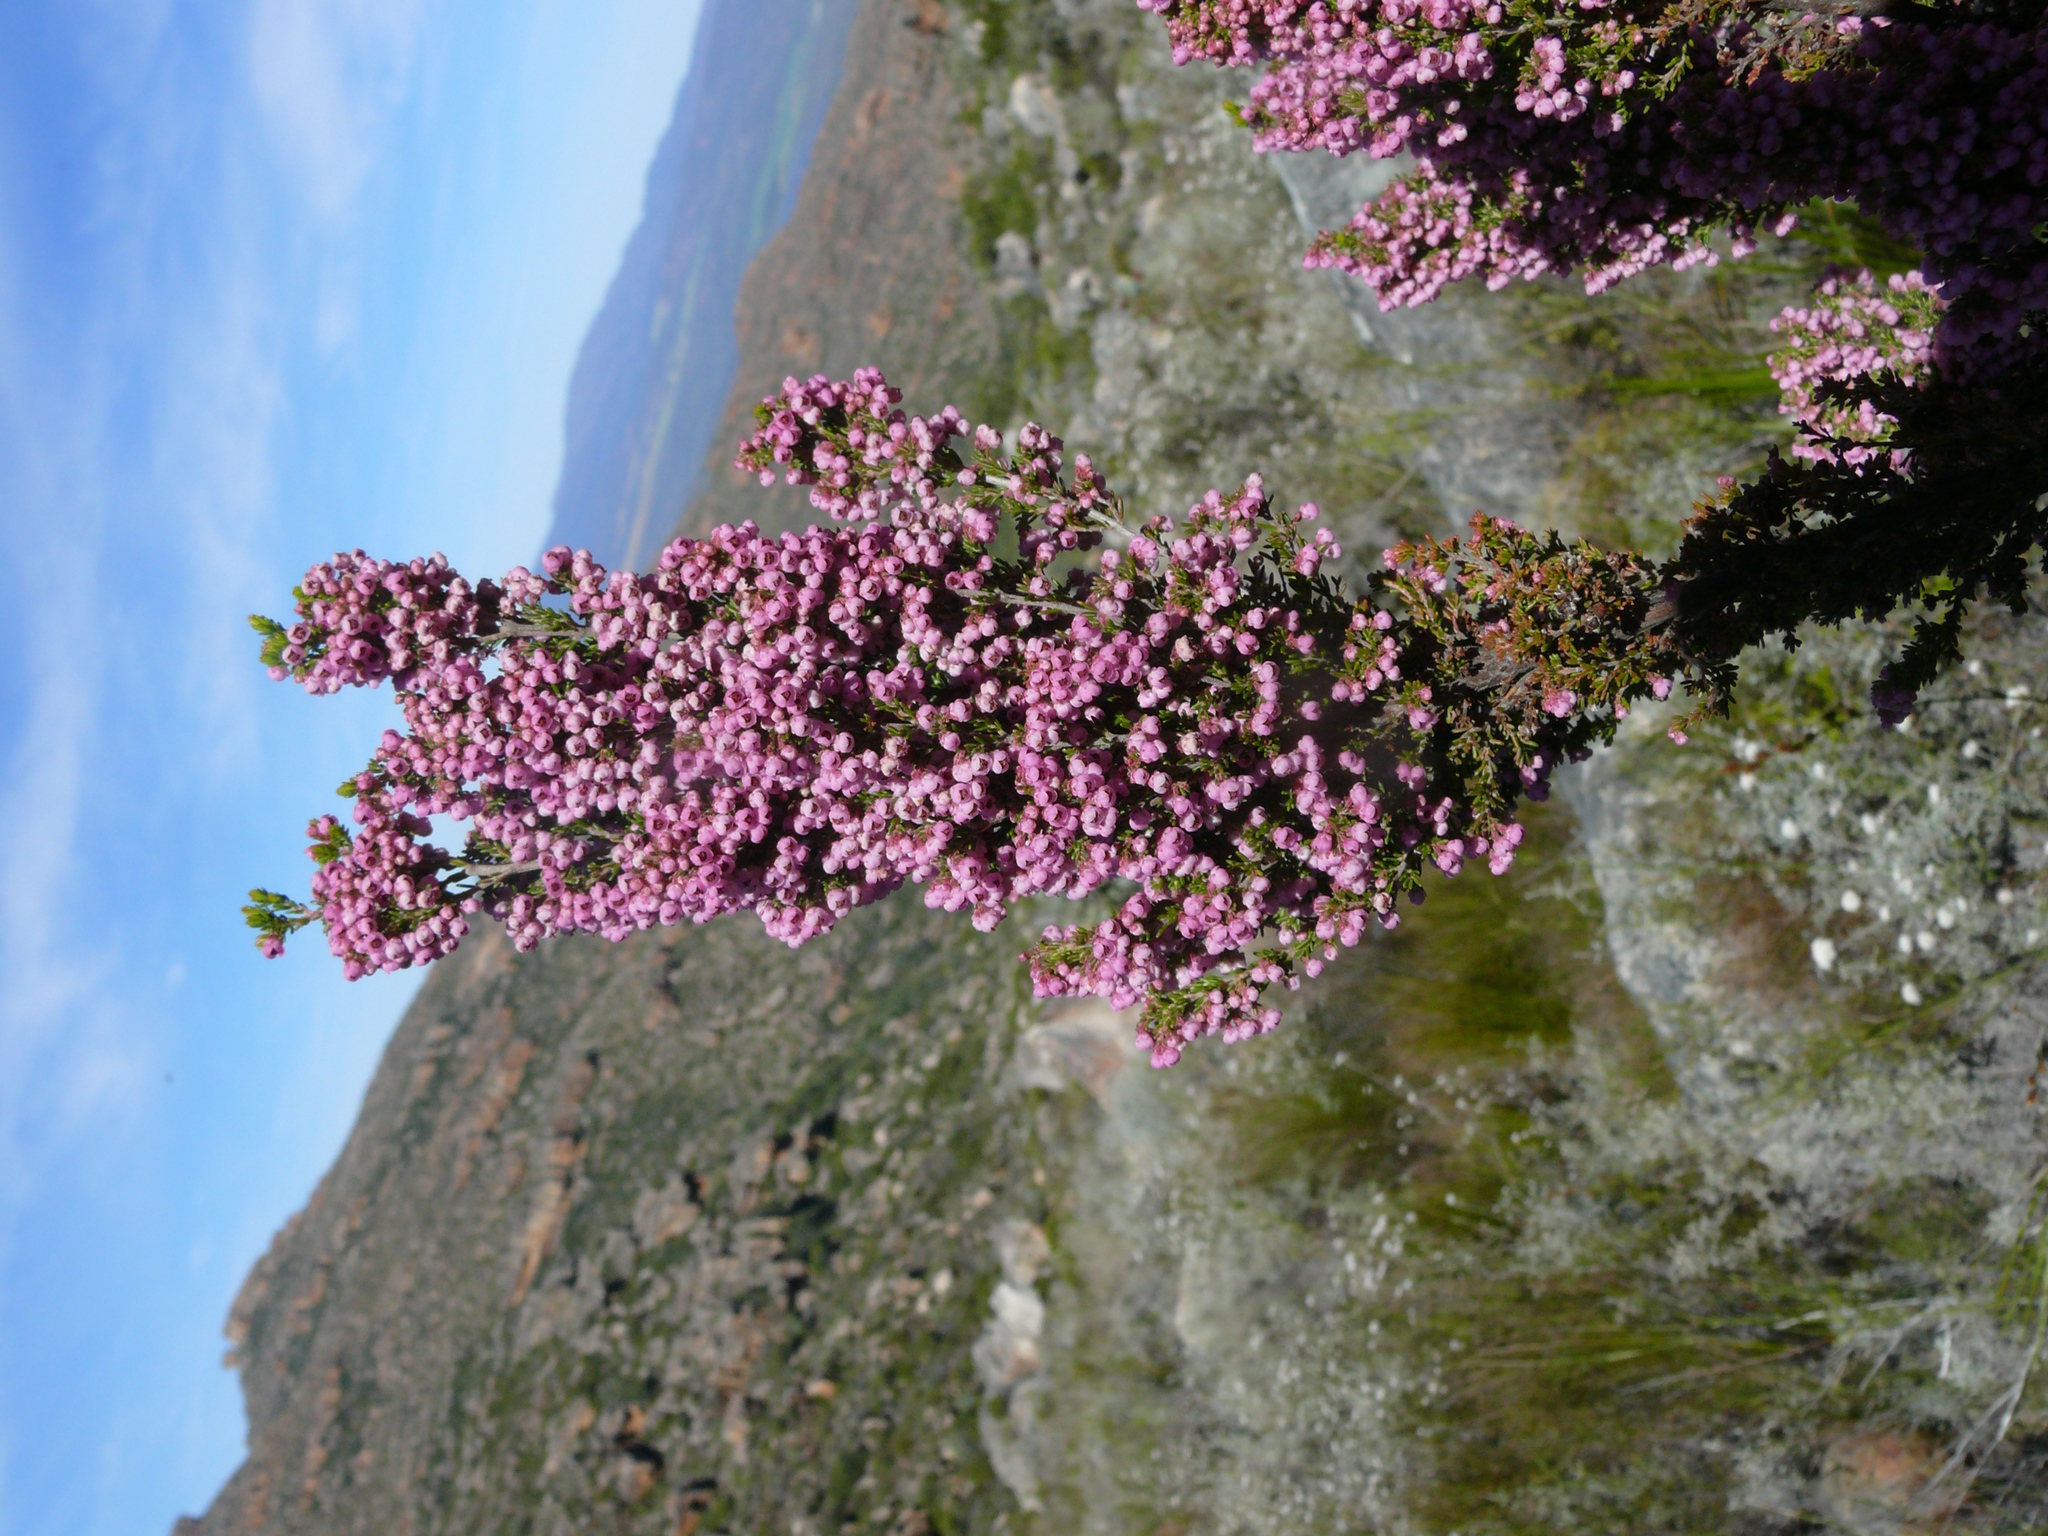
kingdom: Plantae
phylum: Tracheophyta
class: Magnoliopsida
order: Ericales
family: Ericaceae
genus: Erica
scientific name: Erica cristiflora
